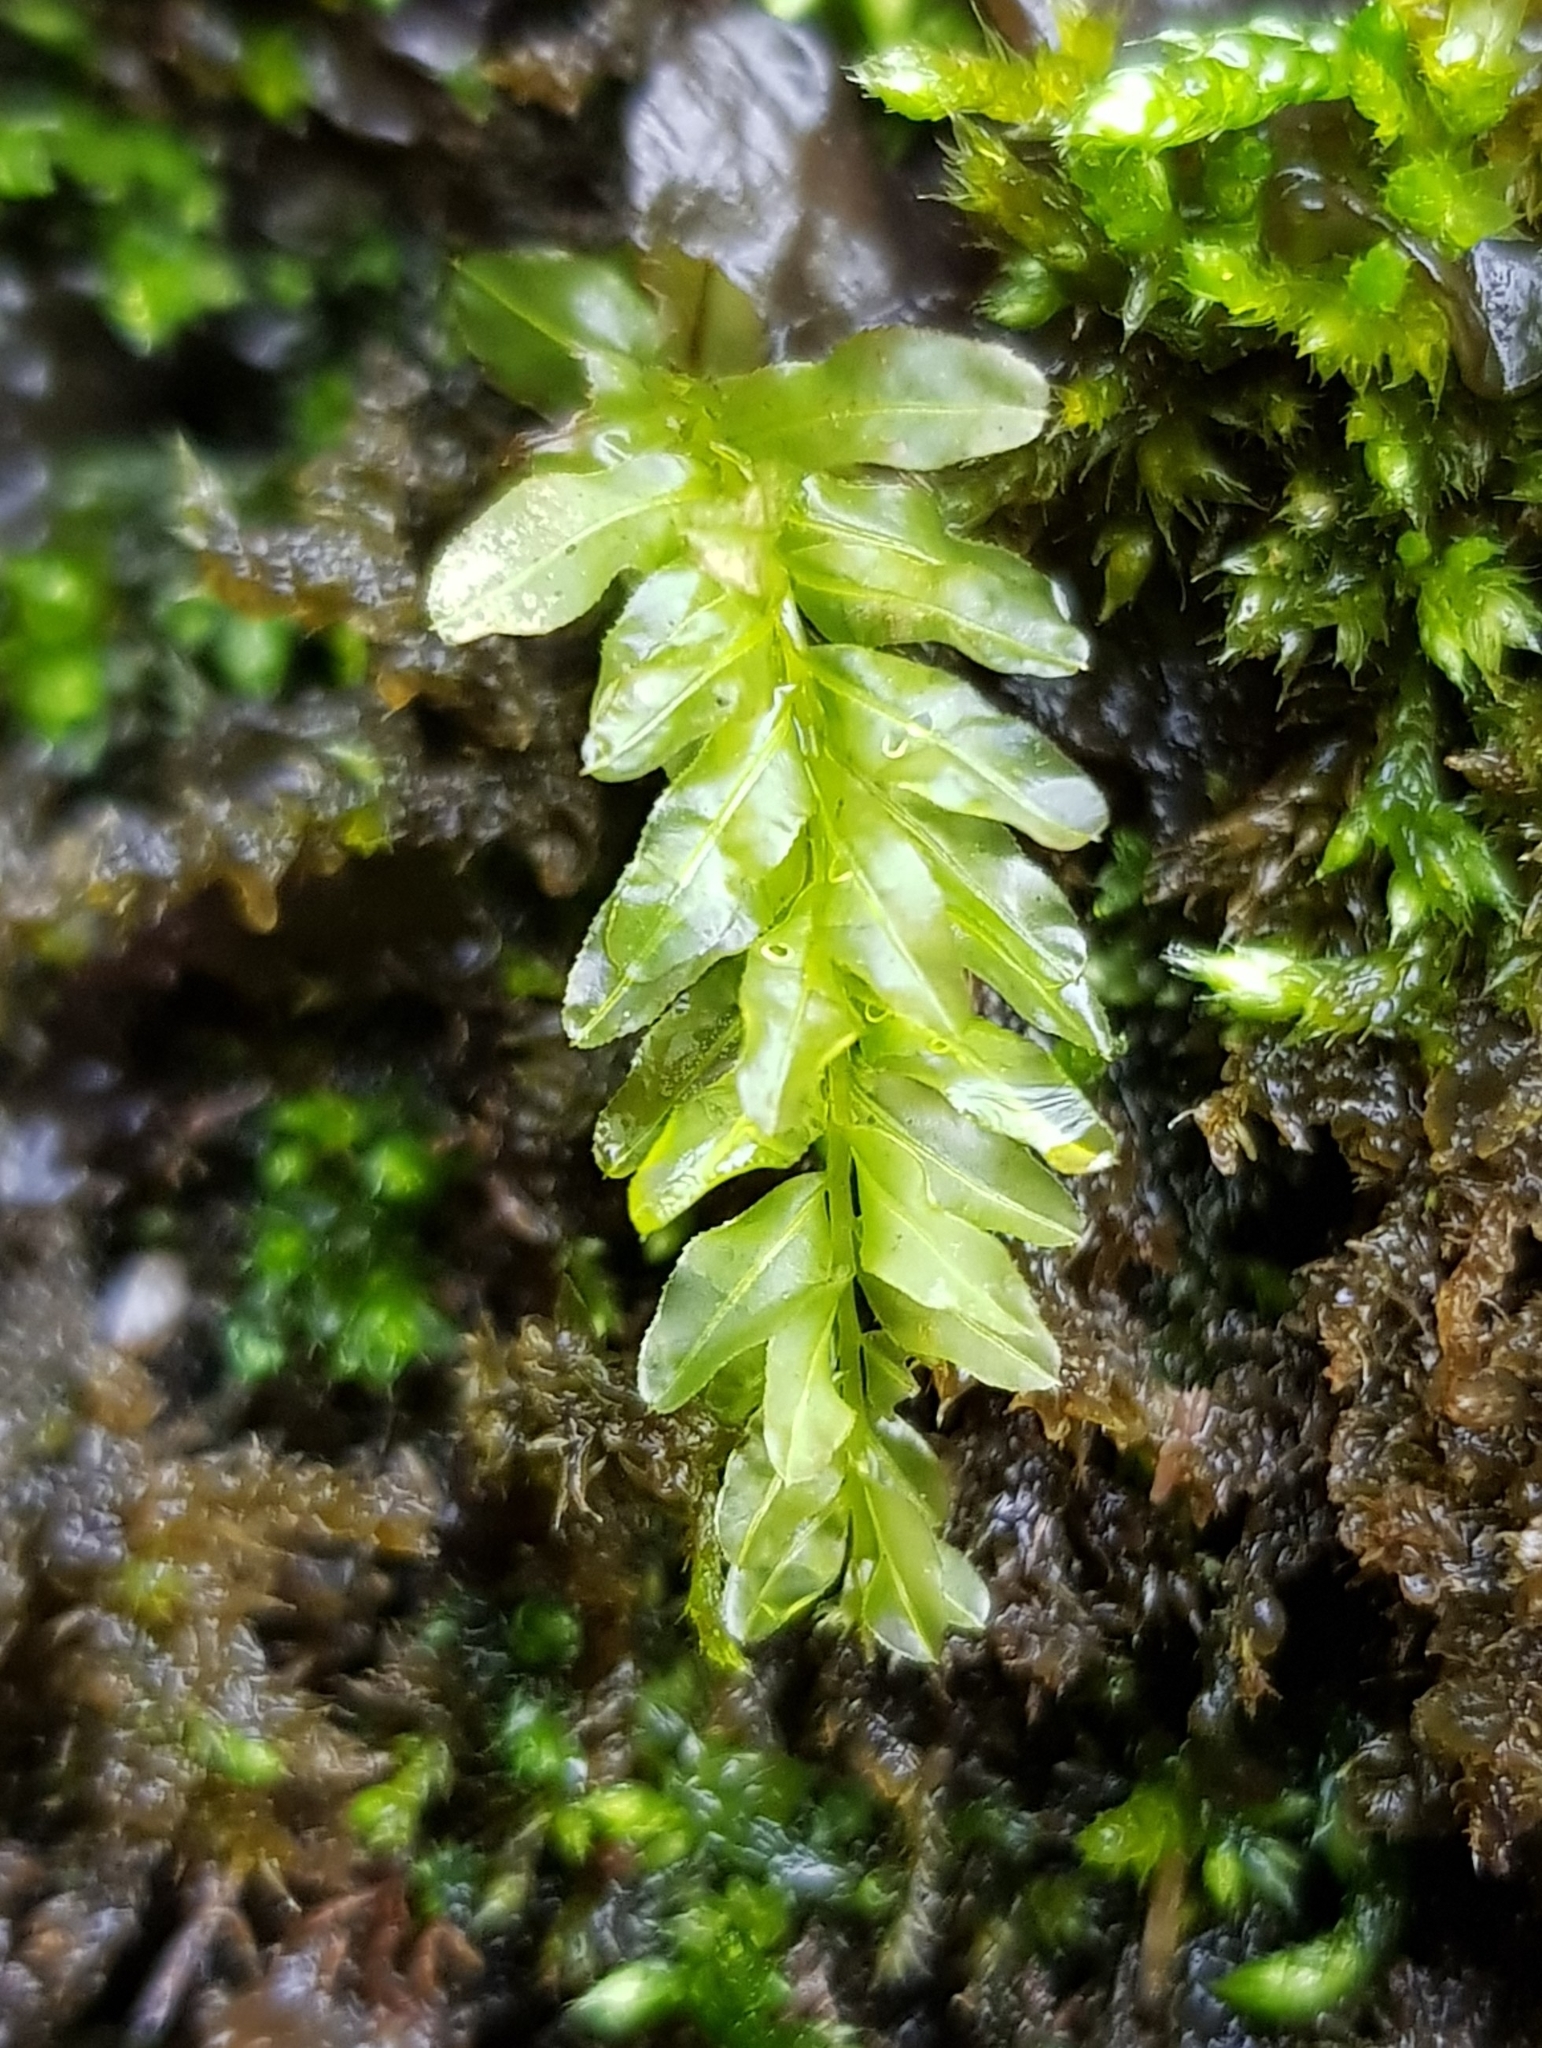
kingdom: Plantae
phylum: Bryophyta
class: Bryopsida
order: Bryales
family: Mniaceae
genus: Plagiomnium
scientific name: Plagiomnium undulatum
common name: Hart's-tongue thyme-moss
